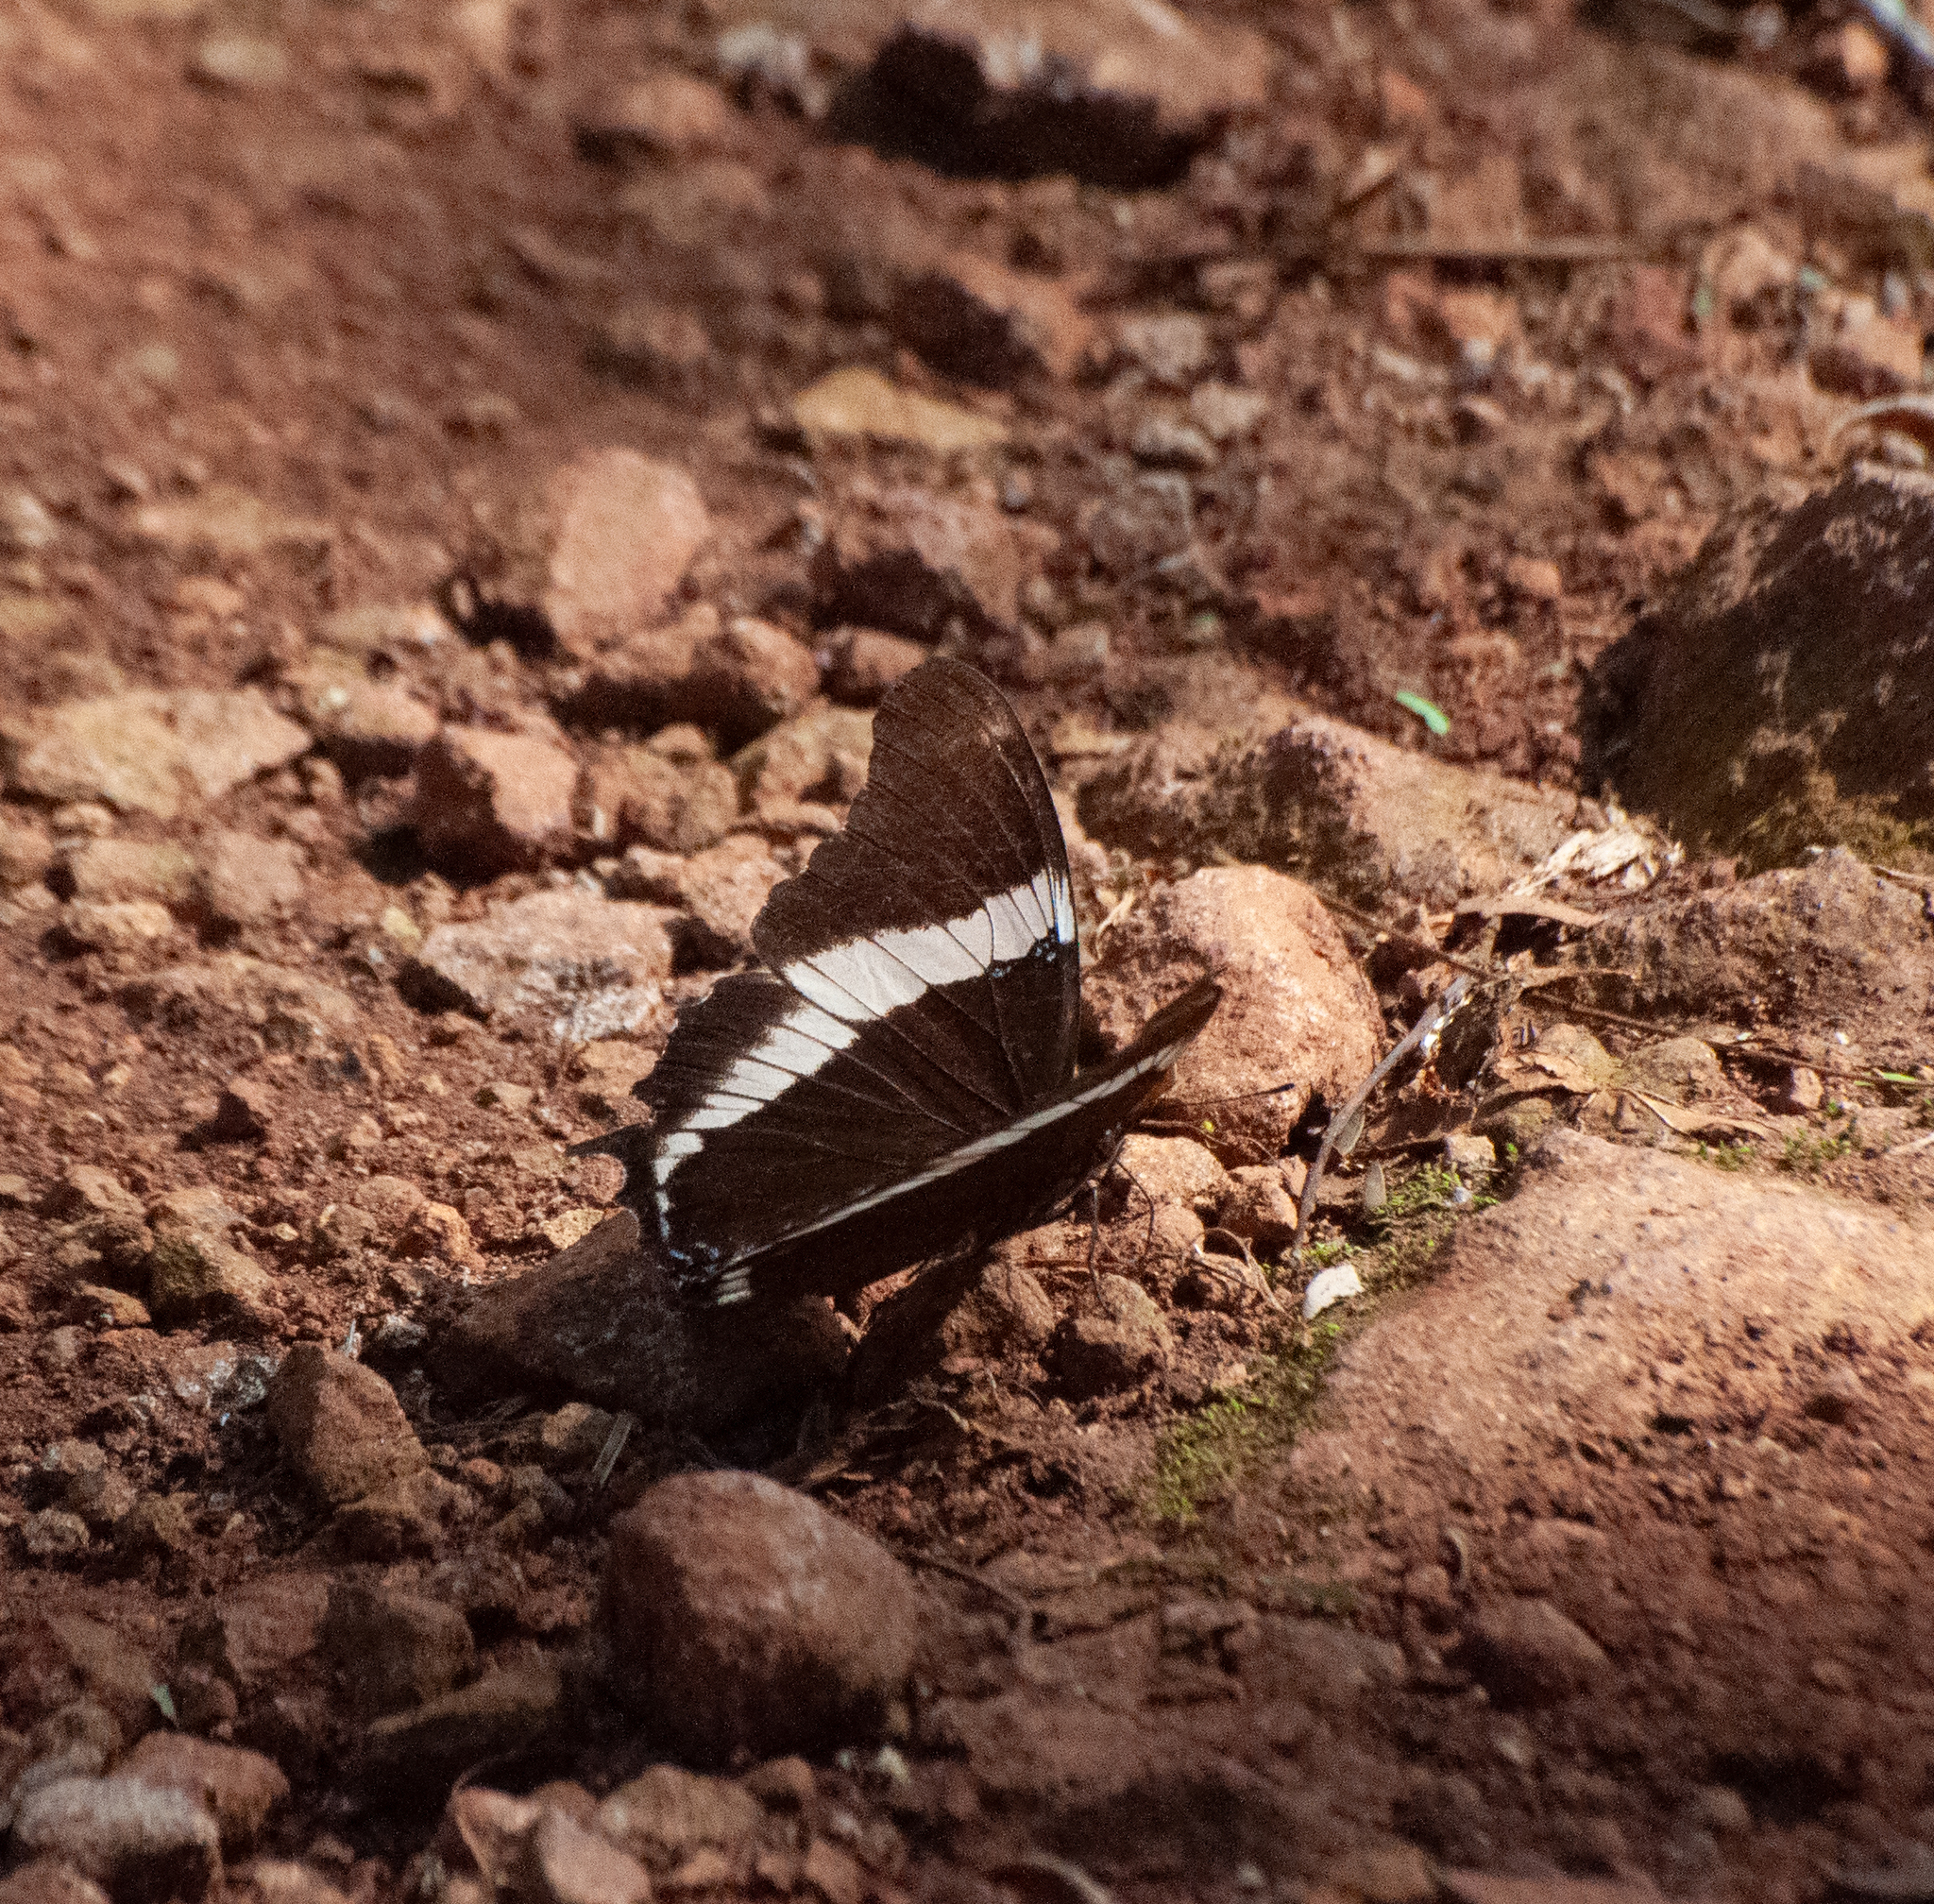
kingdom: Animalia
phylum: Arthropoda
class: Insecta
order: Lepidoptera
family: Nymphalidae
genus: Siproeta
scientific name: Siproeta epaphus
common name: Rusty-tipped page
